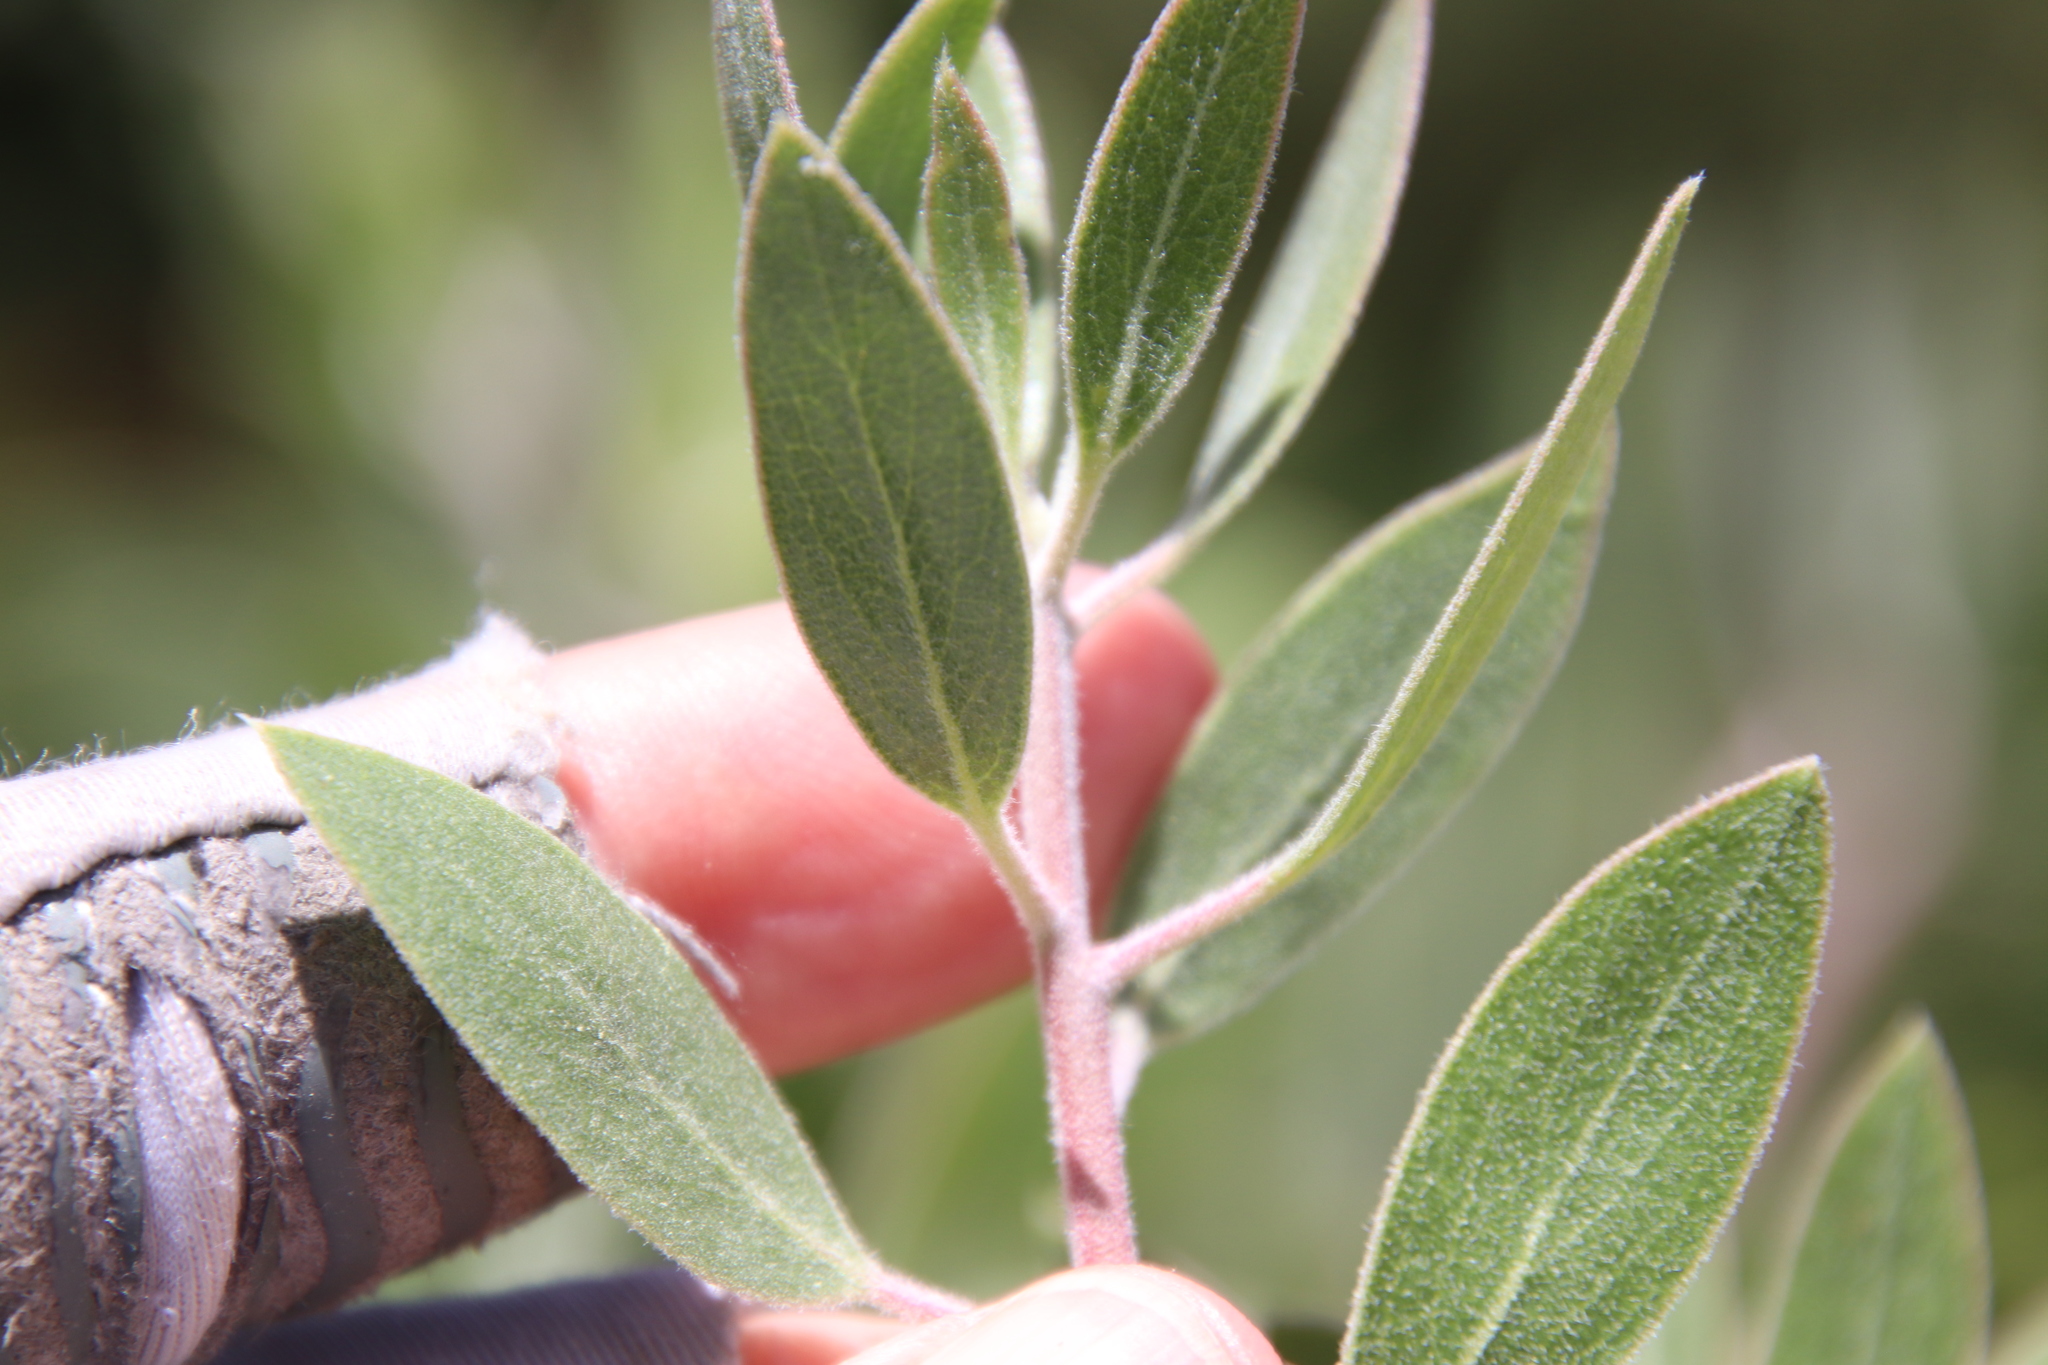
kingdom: Plantae
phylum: Tracheophyta
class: Magnoliopsida
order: Ericales
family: Ericaceae
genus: Arctostaphylos
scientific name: Arctostaphylos pungens
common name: Mexican manzanita
